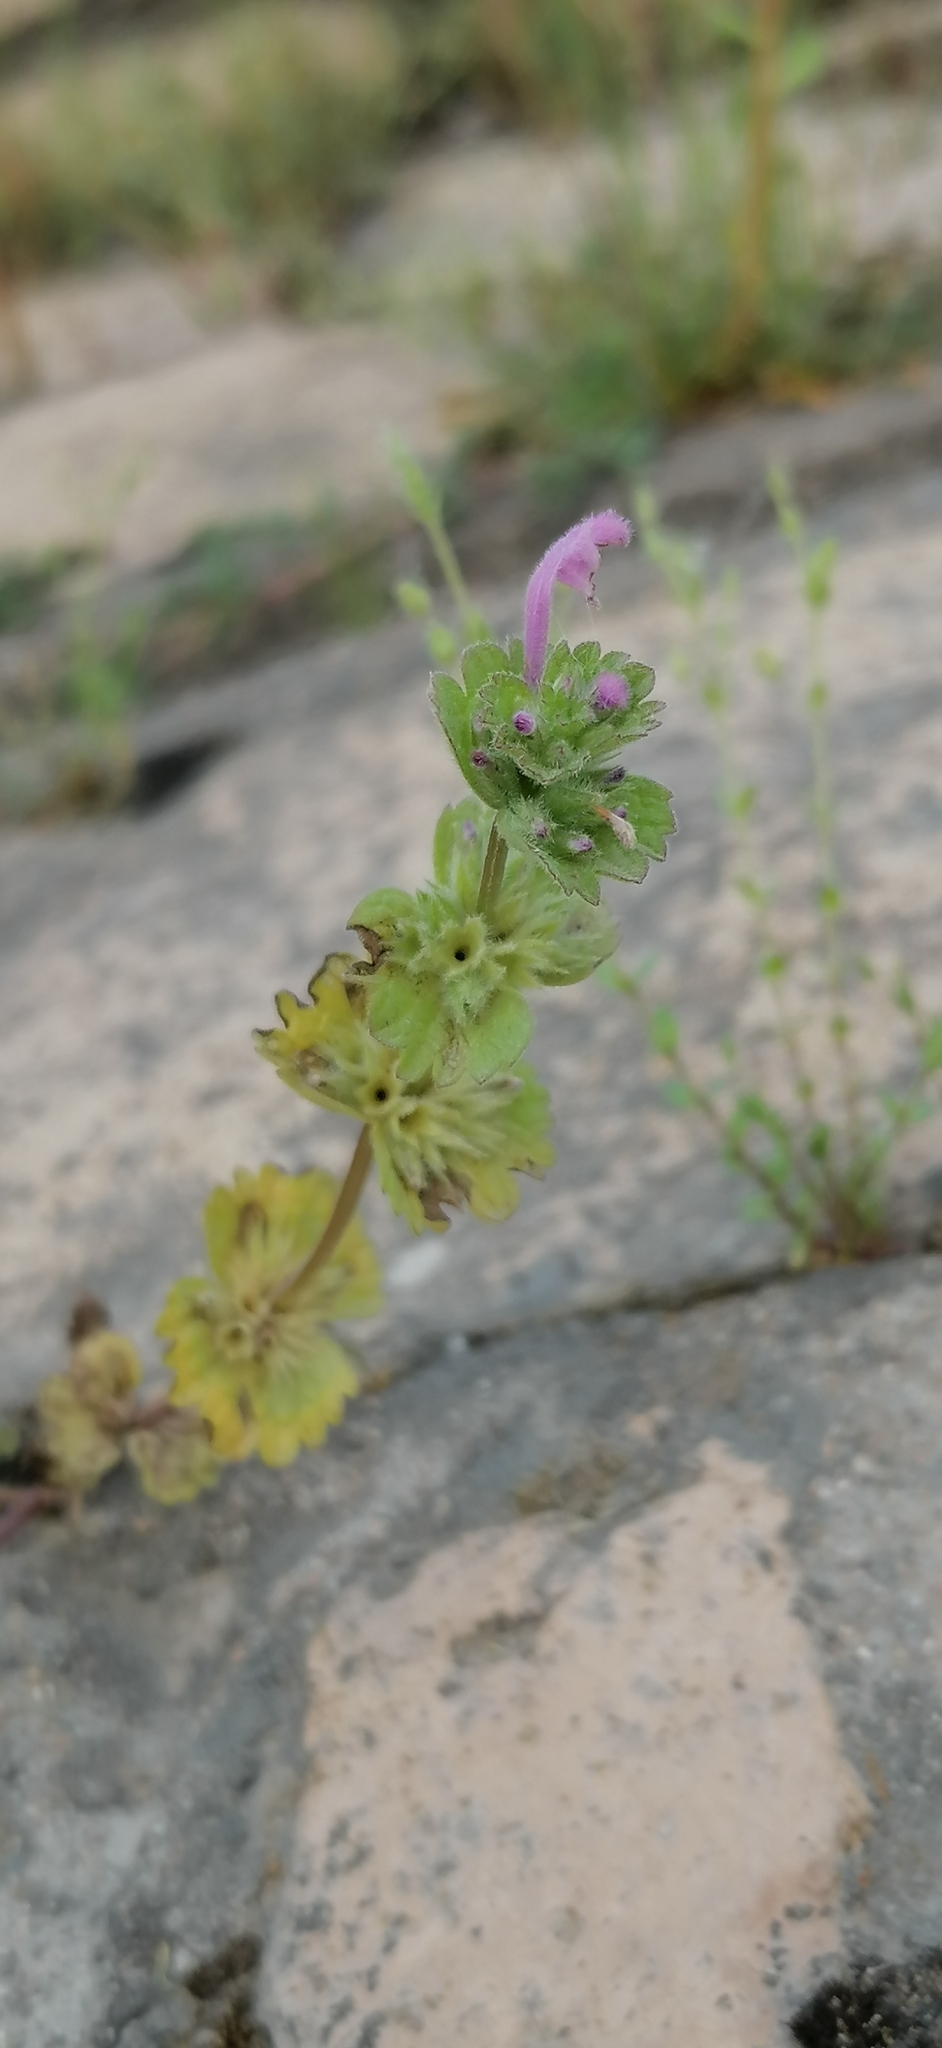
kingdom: Plantae
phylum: Tracheophyta
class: Magnoliopsida
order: Lamiales
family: Lamiaceae
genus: Lamium
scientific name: Lamium amplexicaule
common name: Henbit dead-nettle
